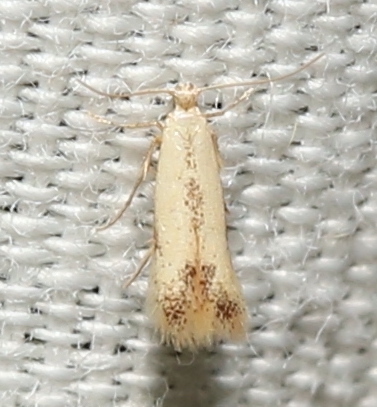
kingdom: Animalia
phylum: Arthropoda
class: Insecta
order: Lepidoptera
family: Tischeriidae
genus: Coptotriche
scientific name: Coptotriche purinosella
